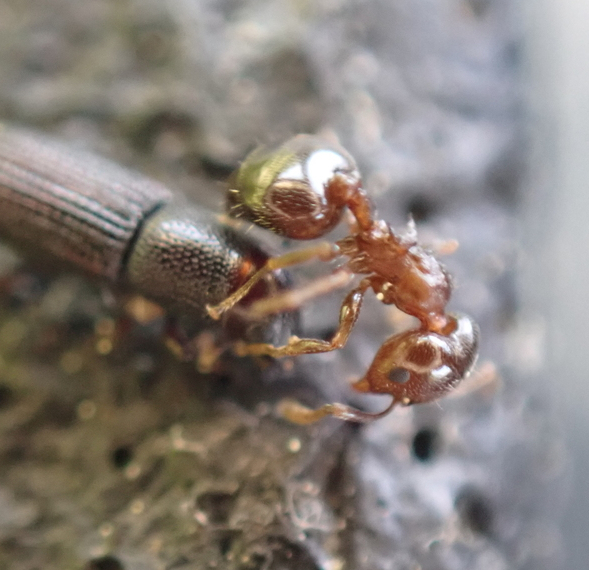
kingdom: Animalia
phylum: Arthropoda
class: Insecta
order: Hymenoptera
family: Formicidae
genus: Crematogaster
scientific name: Crematogaster ashmeadi
